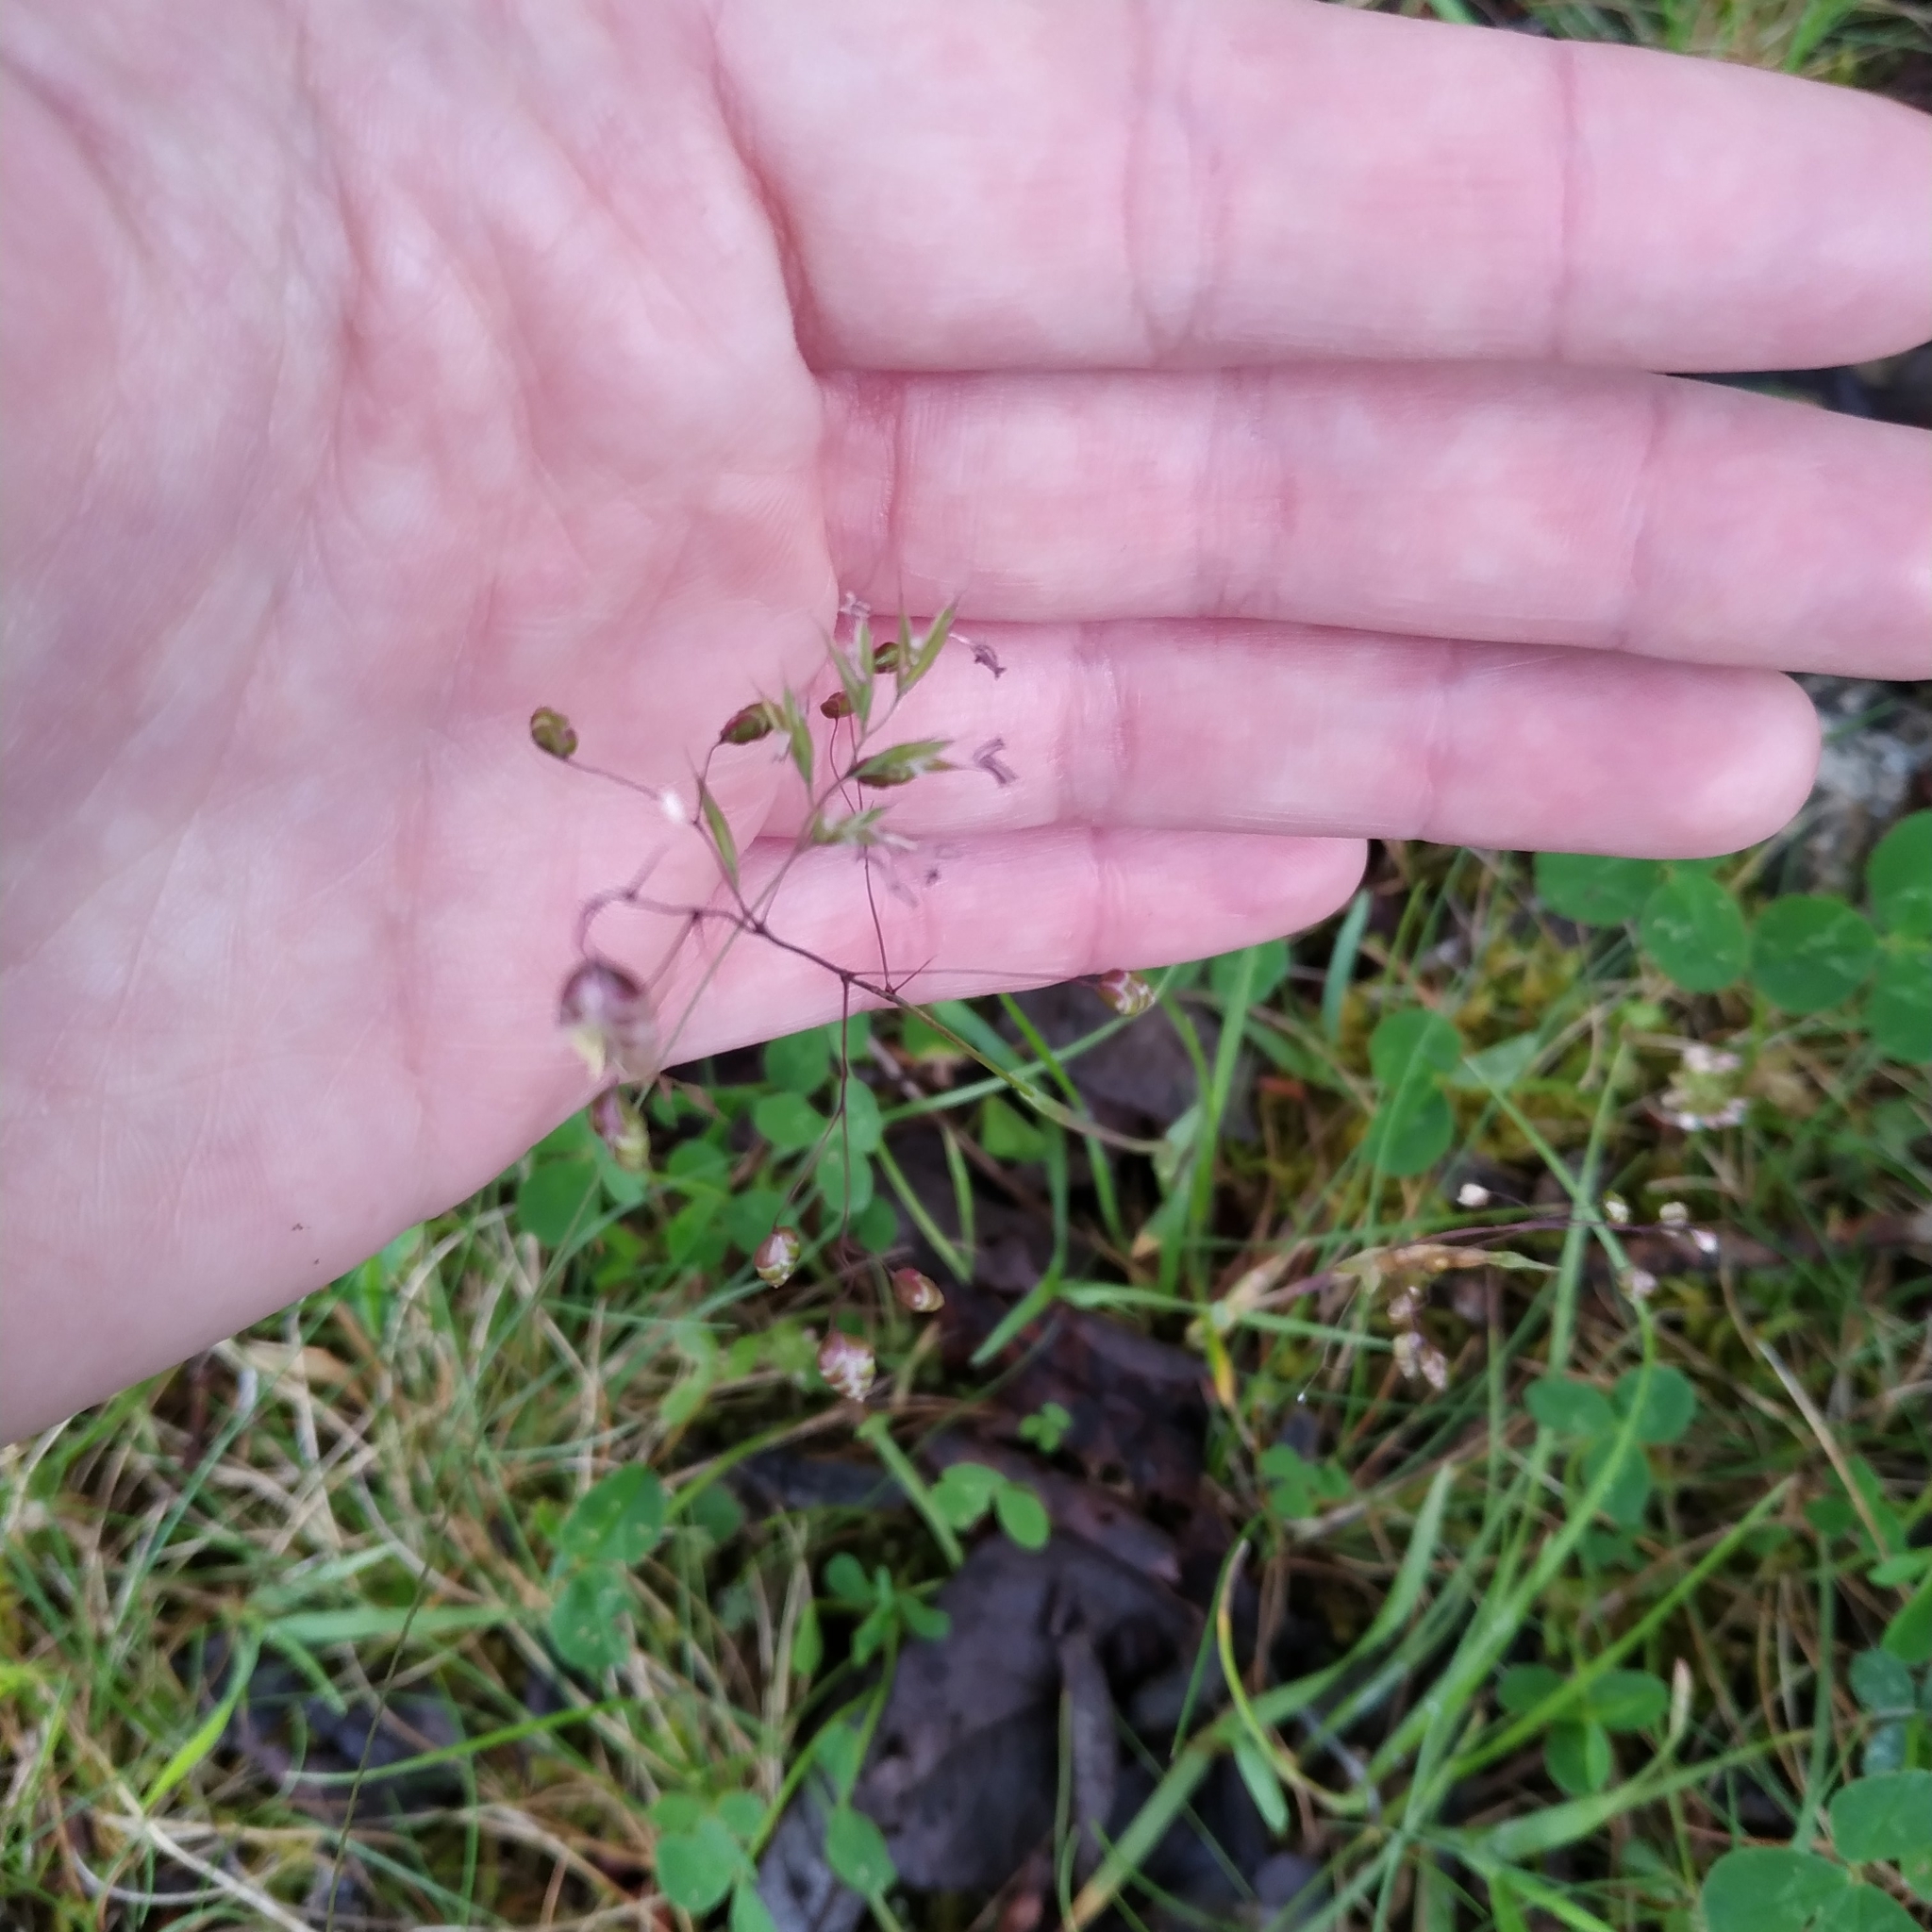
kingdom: Plantae
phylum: Tracheophyta
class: Liliopsida
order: Poales
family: Poaceae
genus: Briza
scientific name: Briza media
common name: Quaking grass
